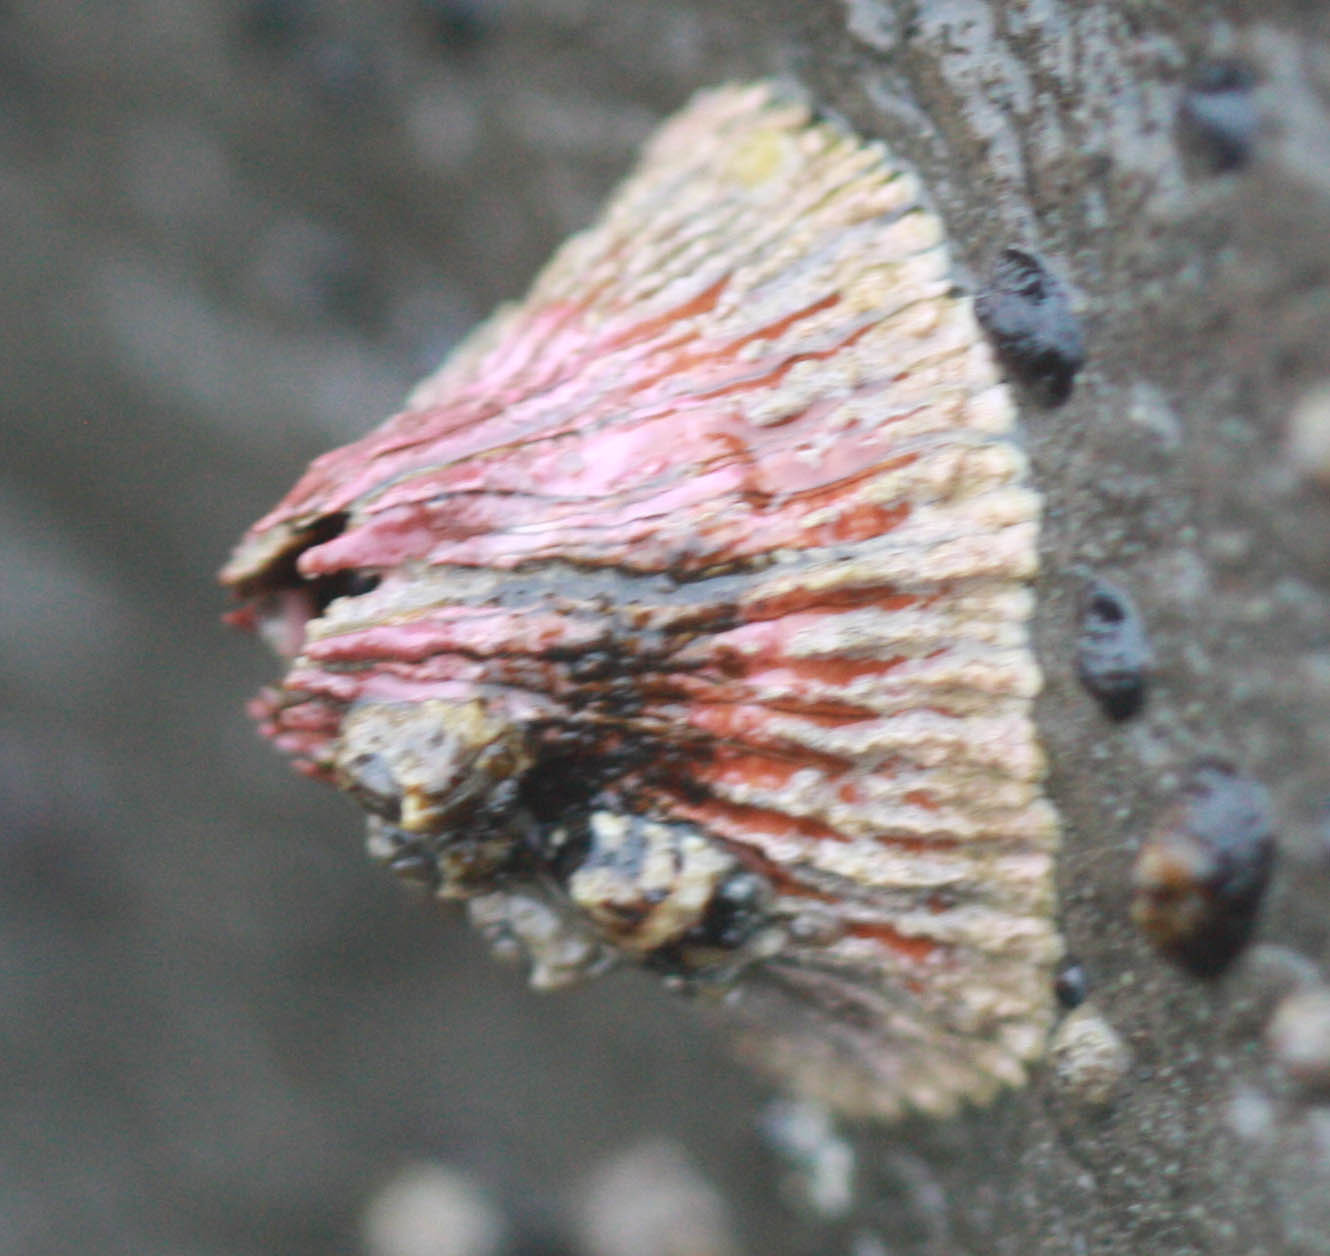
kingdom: Animalia
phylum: Arthropoda
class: Maxillopoda
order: Sessilia
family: Tetraclitidae
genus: Tetraclita
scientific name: Tetraclita rubescens
